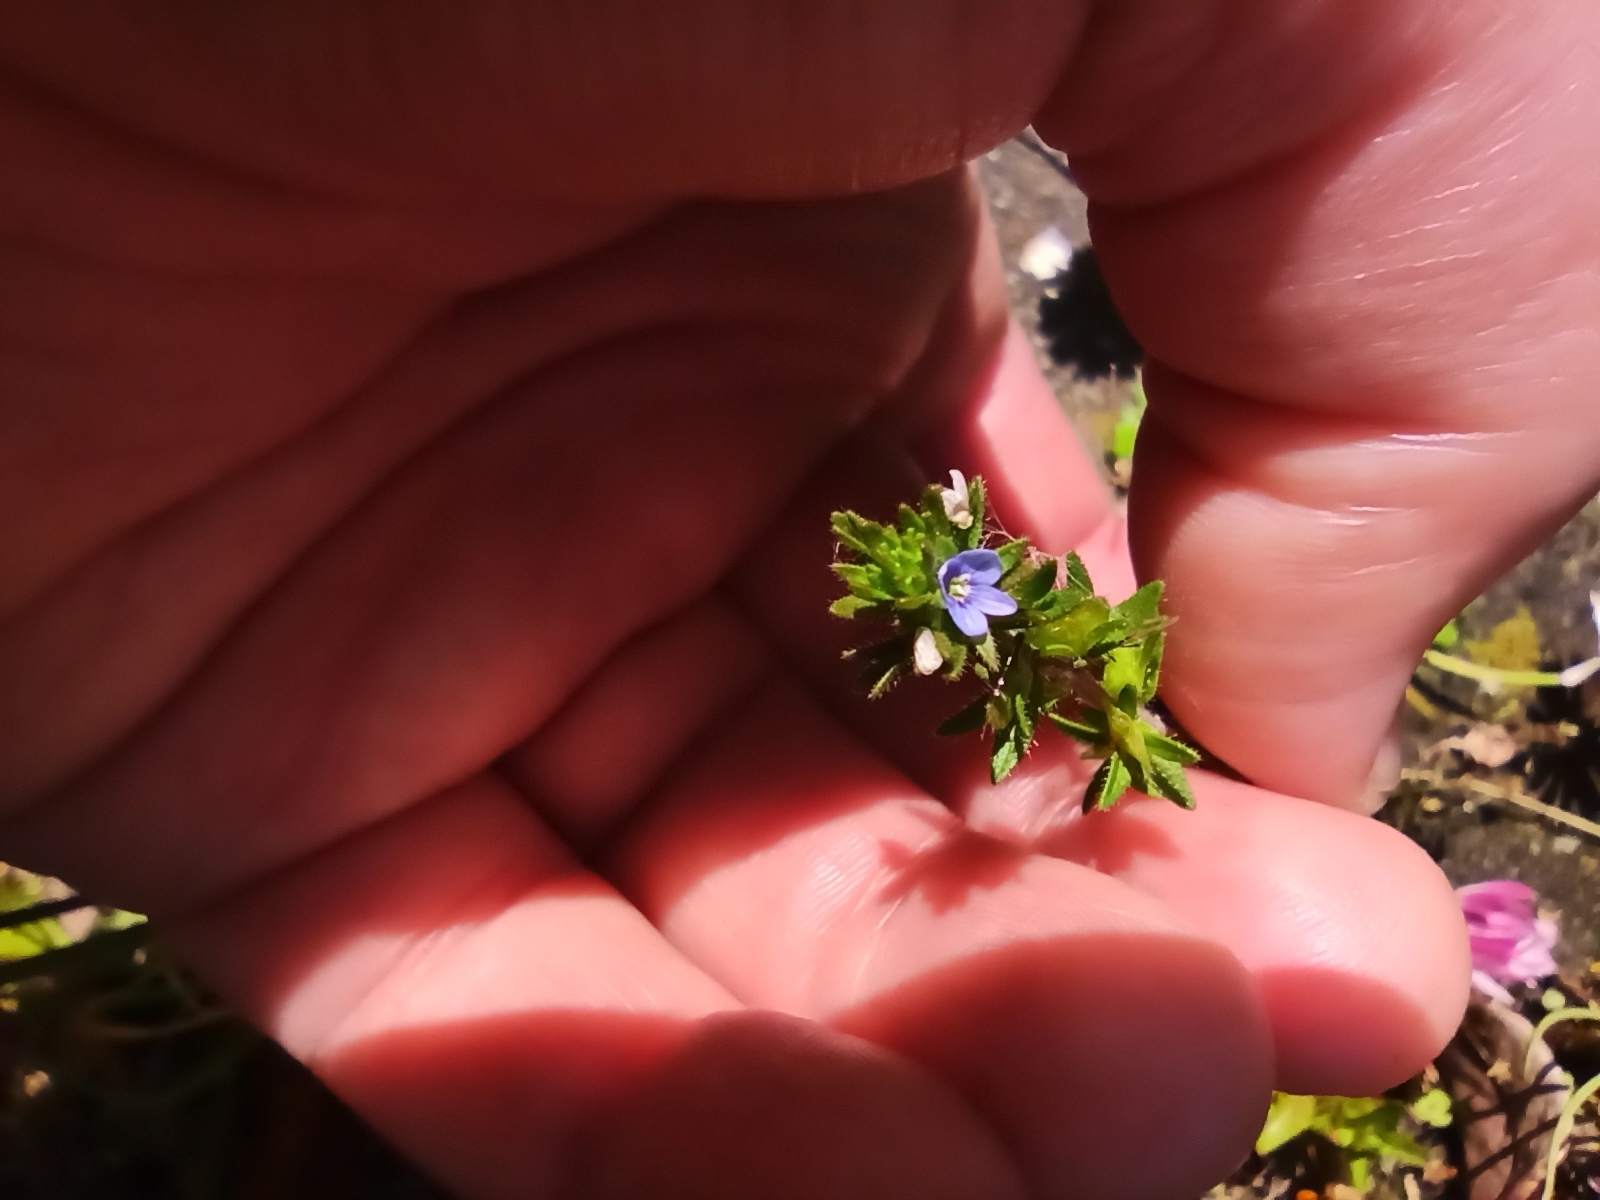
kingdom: Plantae
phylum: Tracheophyta
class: Magnoliopsida
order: Lamiales
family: Plantaginaceae
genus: Veronica
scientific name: Veronica arvensis
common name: Corn speedwell
